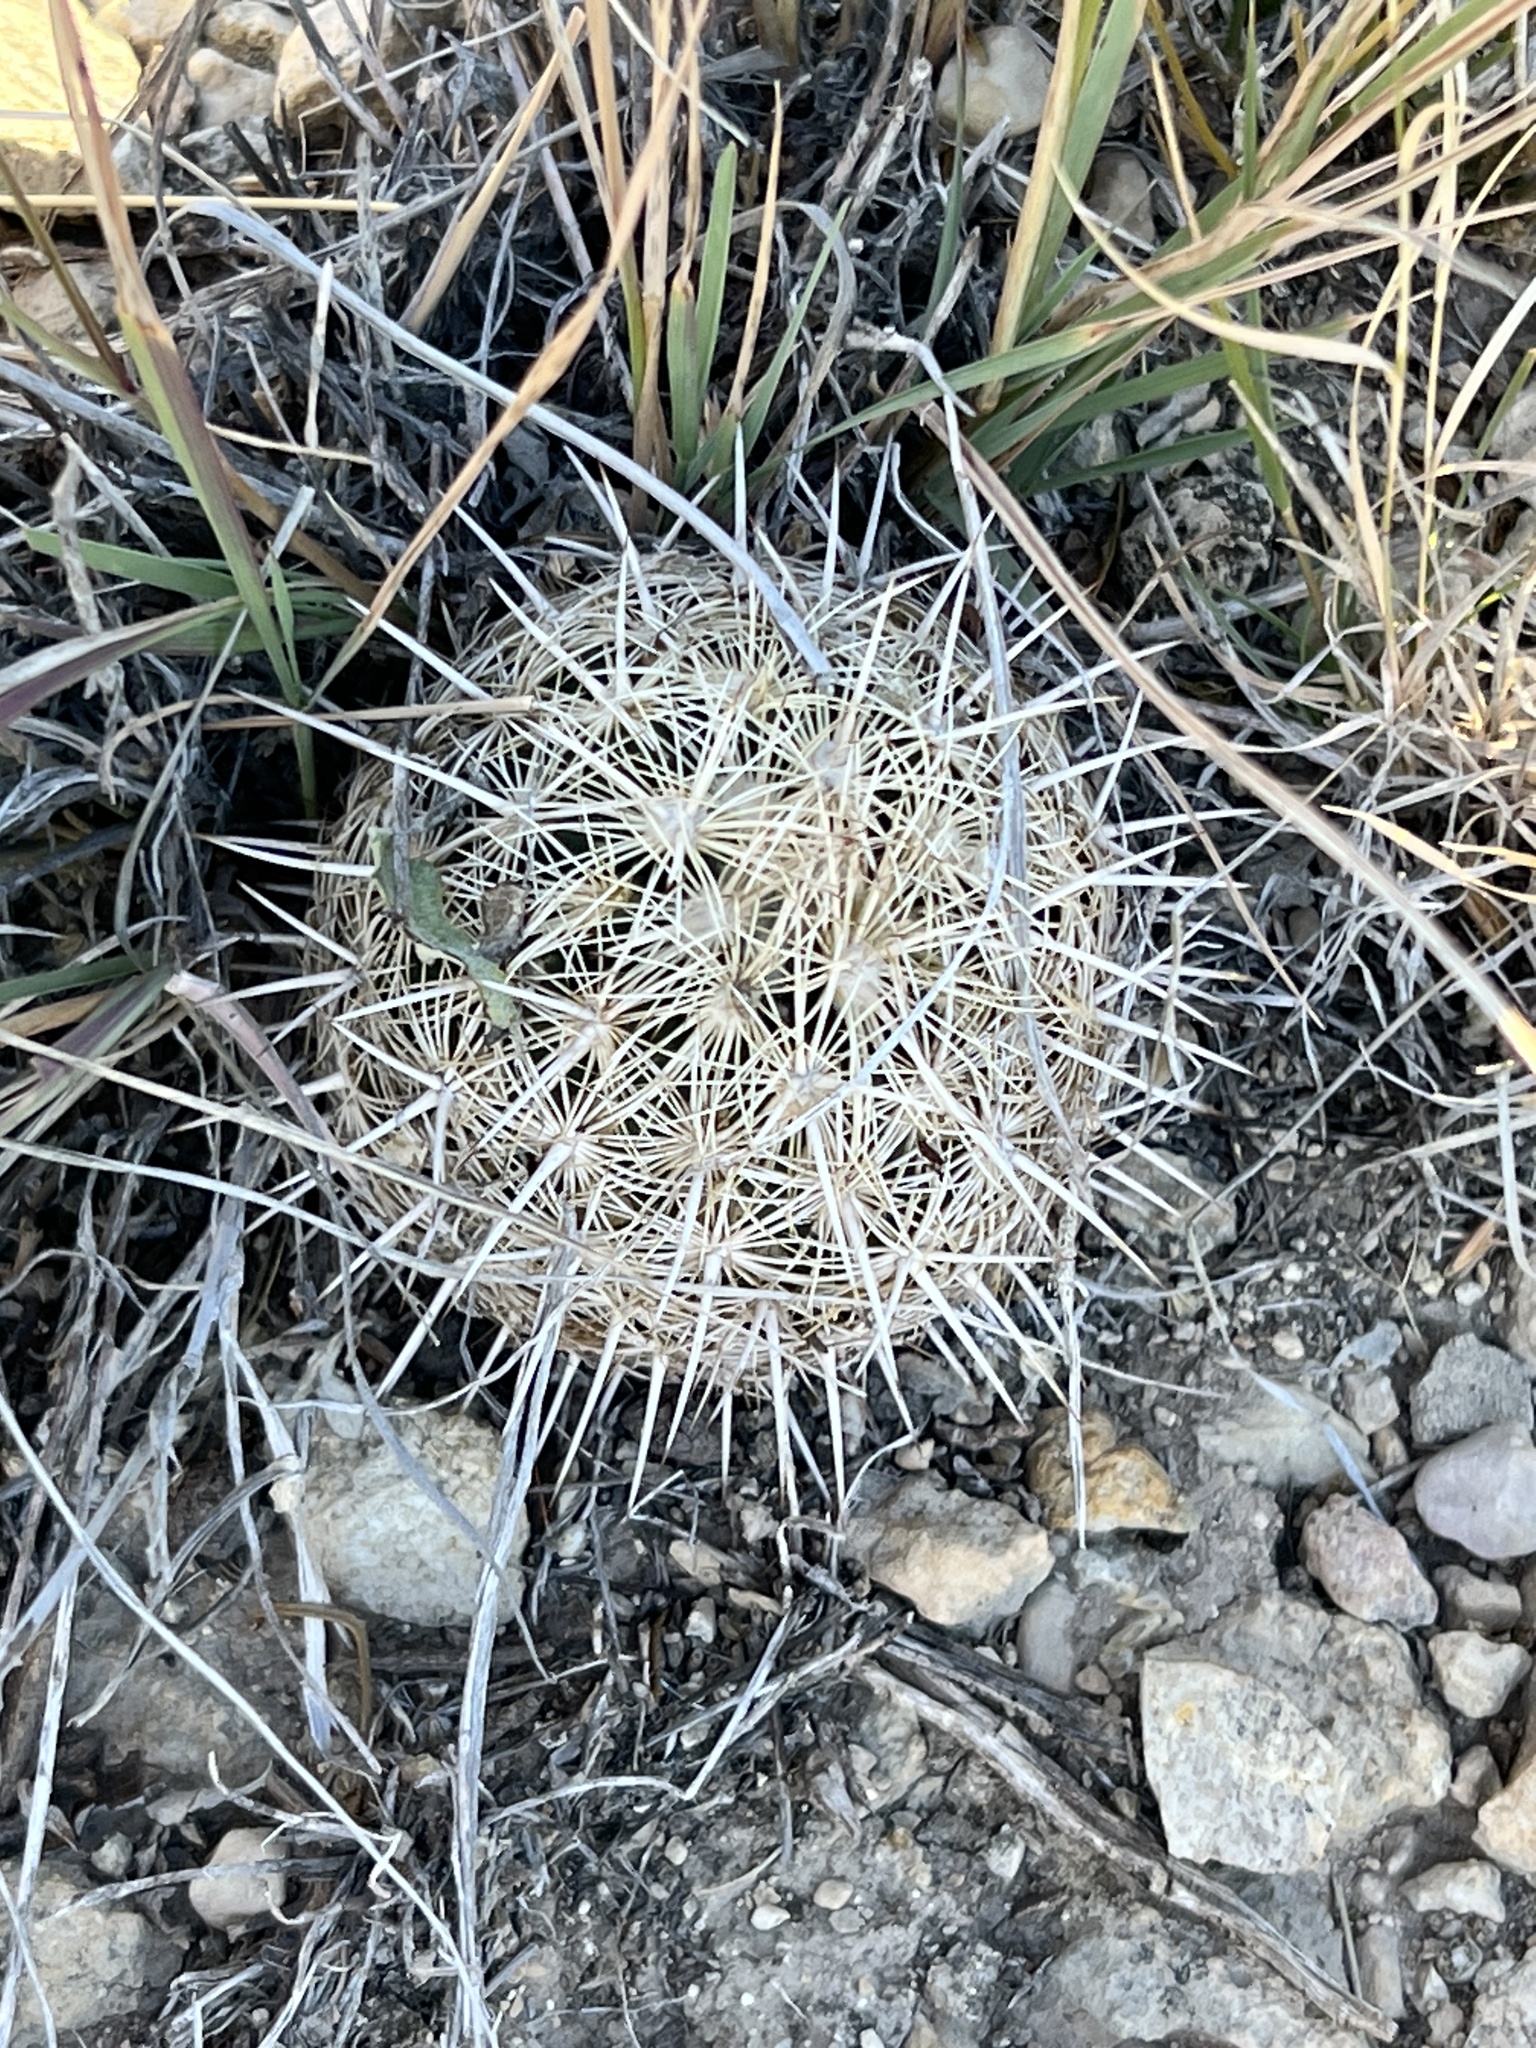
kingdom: Plantae
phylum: Tracheophyta
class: Magnoliopsida
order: Caryophyllales
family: Cactaceae
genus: Coryphantha
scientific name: Coryphantha echinus
